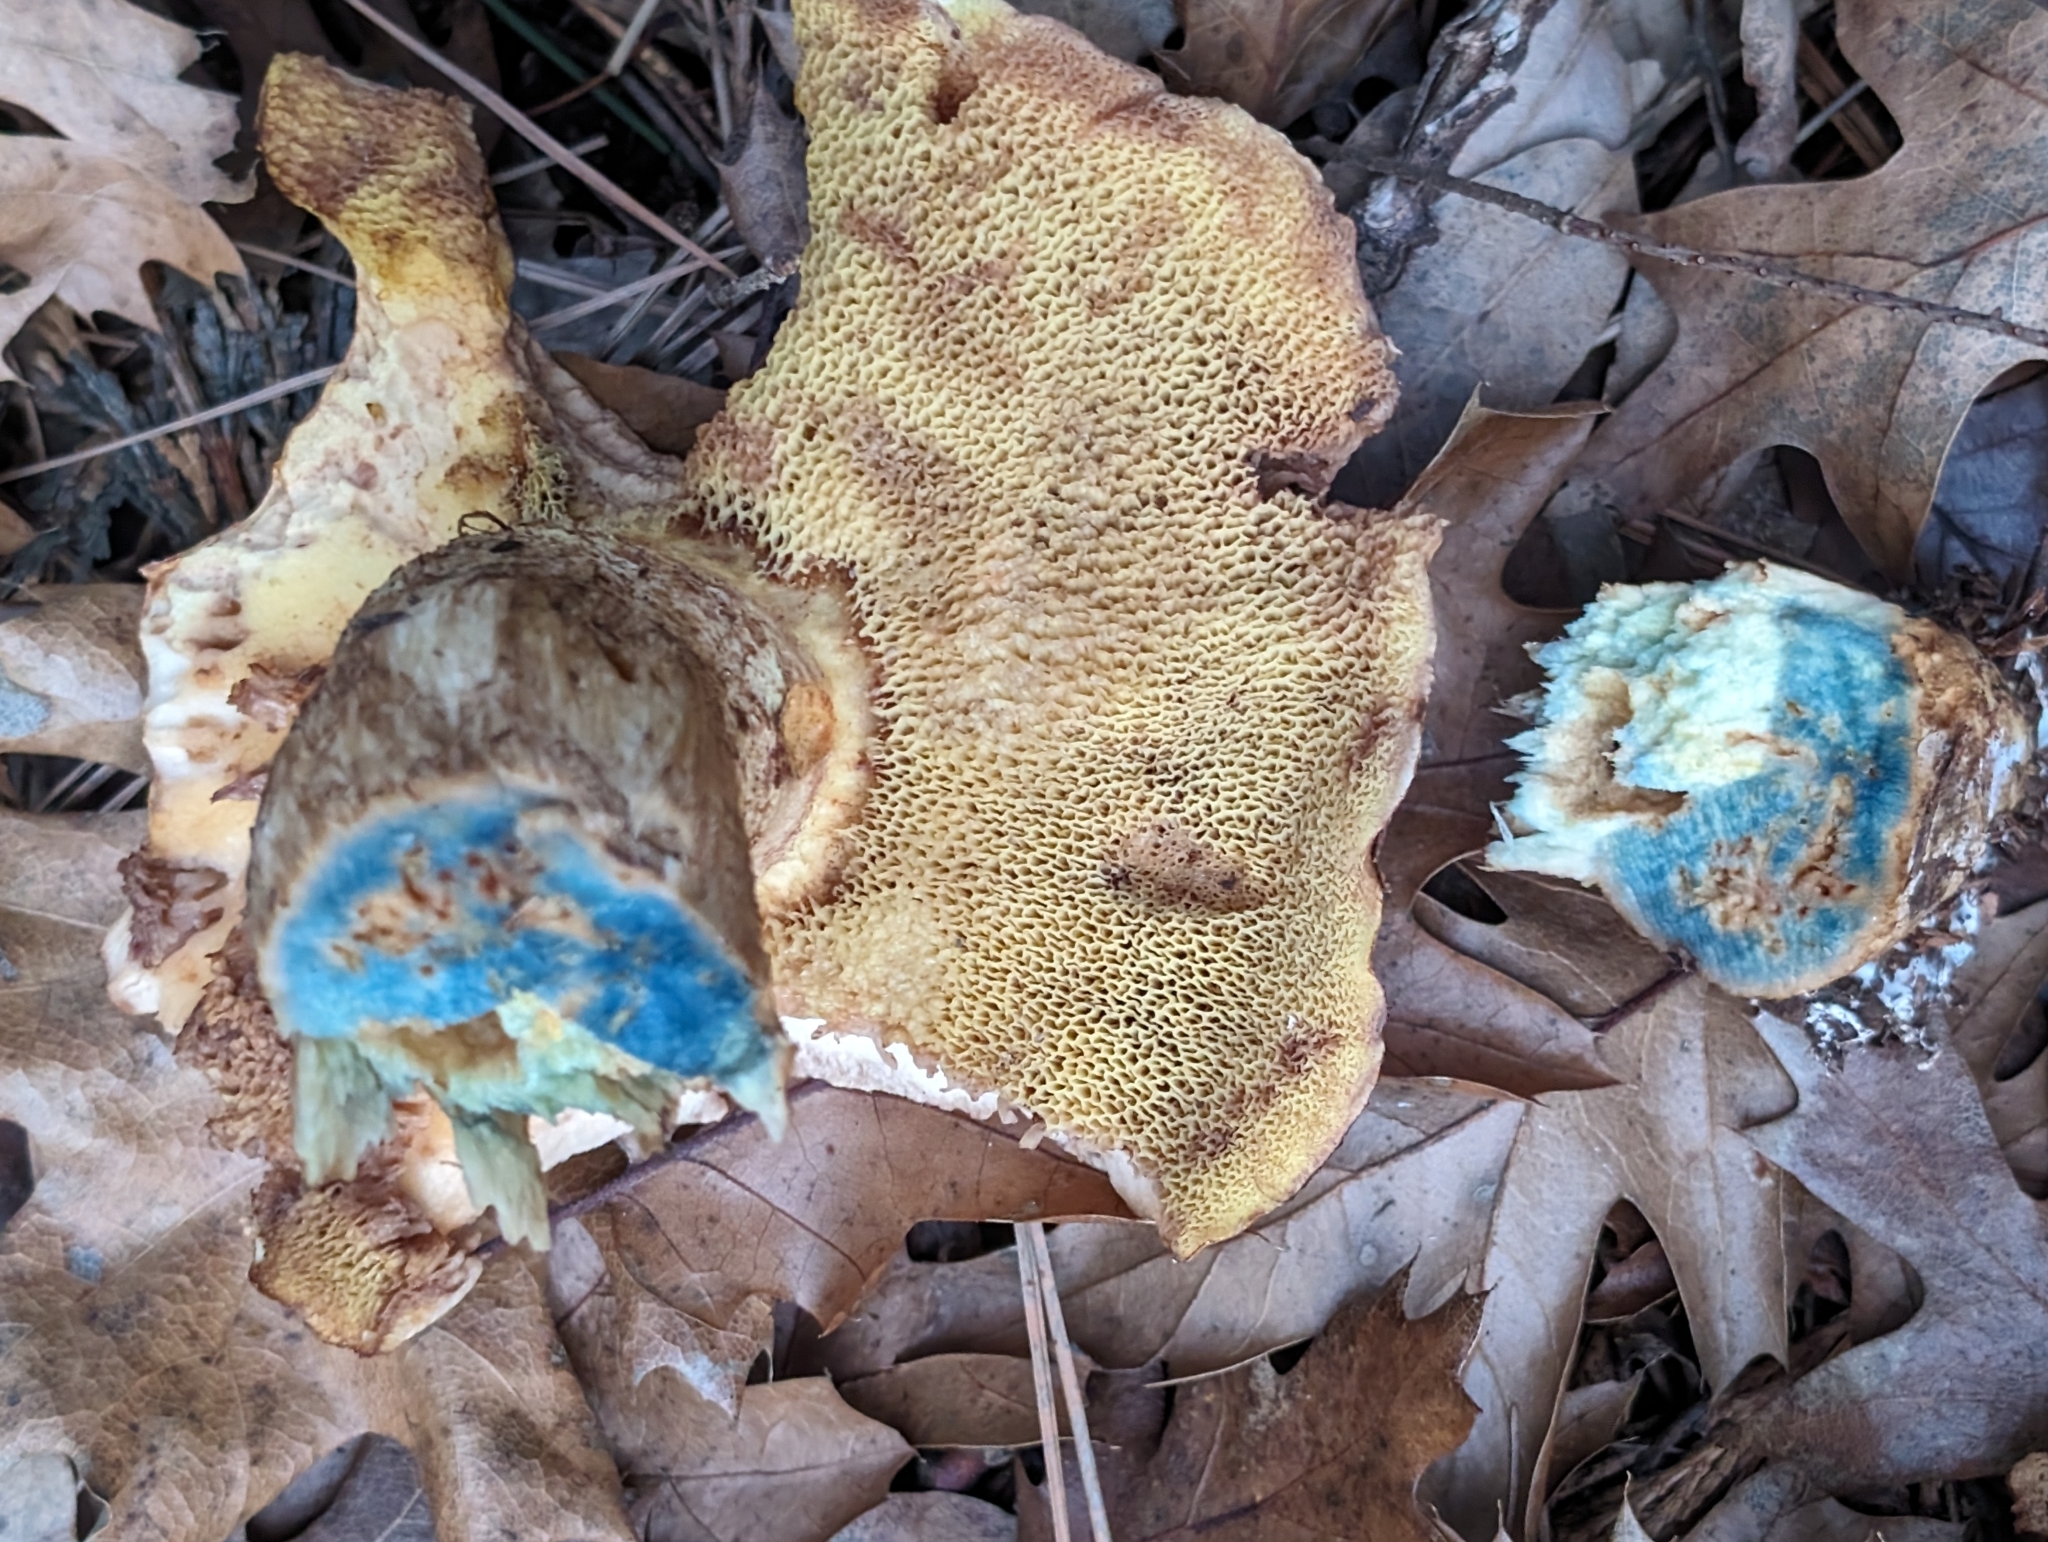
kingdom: Fungi
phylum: Basidiomycota
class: Agaricomycetes
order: Boletales
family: Suillaceae
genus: Suillus
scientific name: Suillus caerulescens
